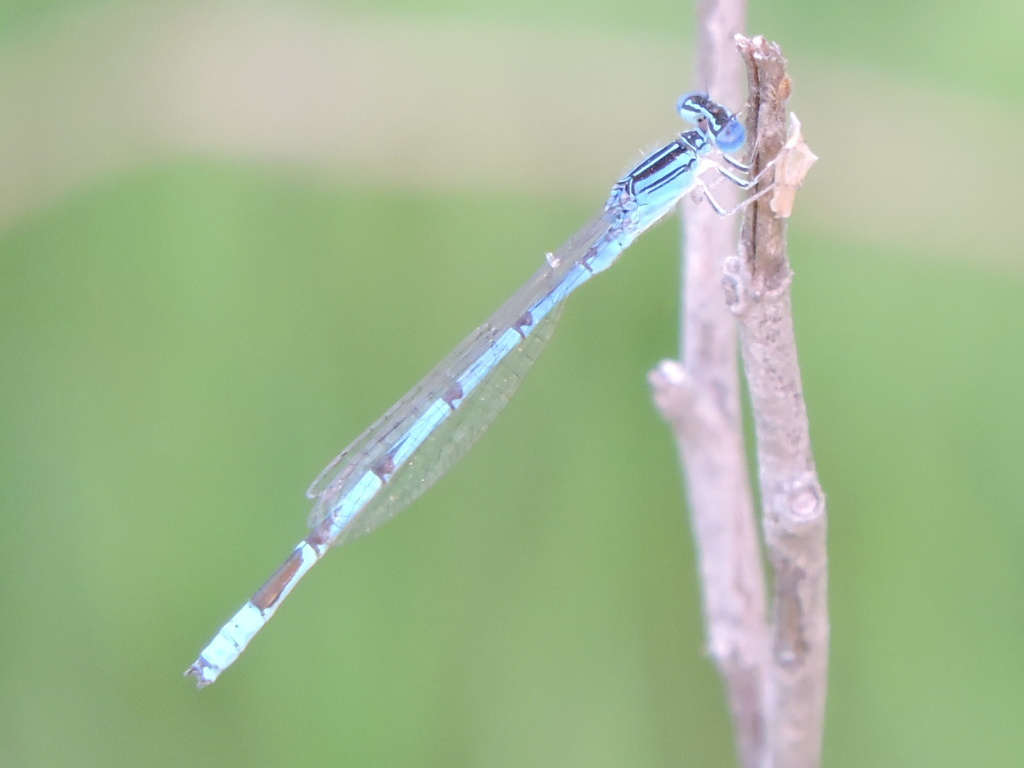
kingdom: Animalia
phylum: Arthropoda
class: Insecta
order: Odonata
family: Coenagrionidae
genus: Enallagma
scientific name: Enallagma basidens
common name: Double-striped bluet
